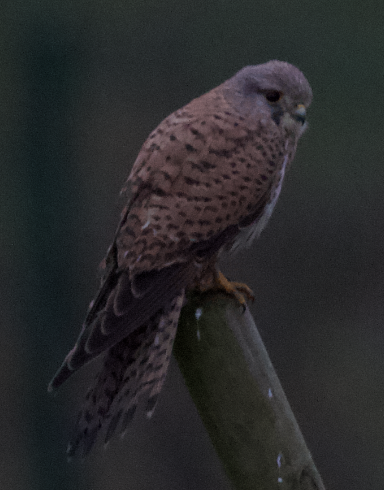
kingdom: Animalia
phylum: Chordata
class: Aves
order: Falconiformes
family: Falconidae
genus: Falco
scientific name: Falco tinnunculus
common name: Common kestrel
